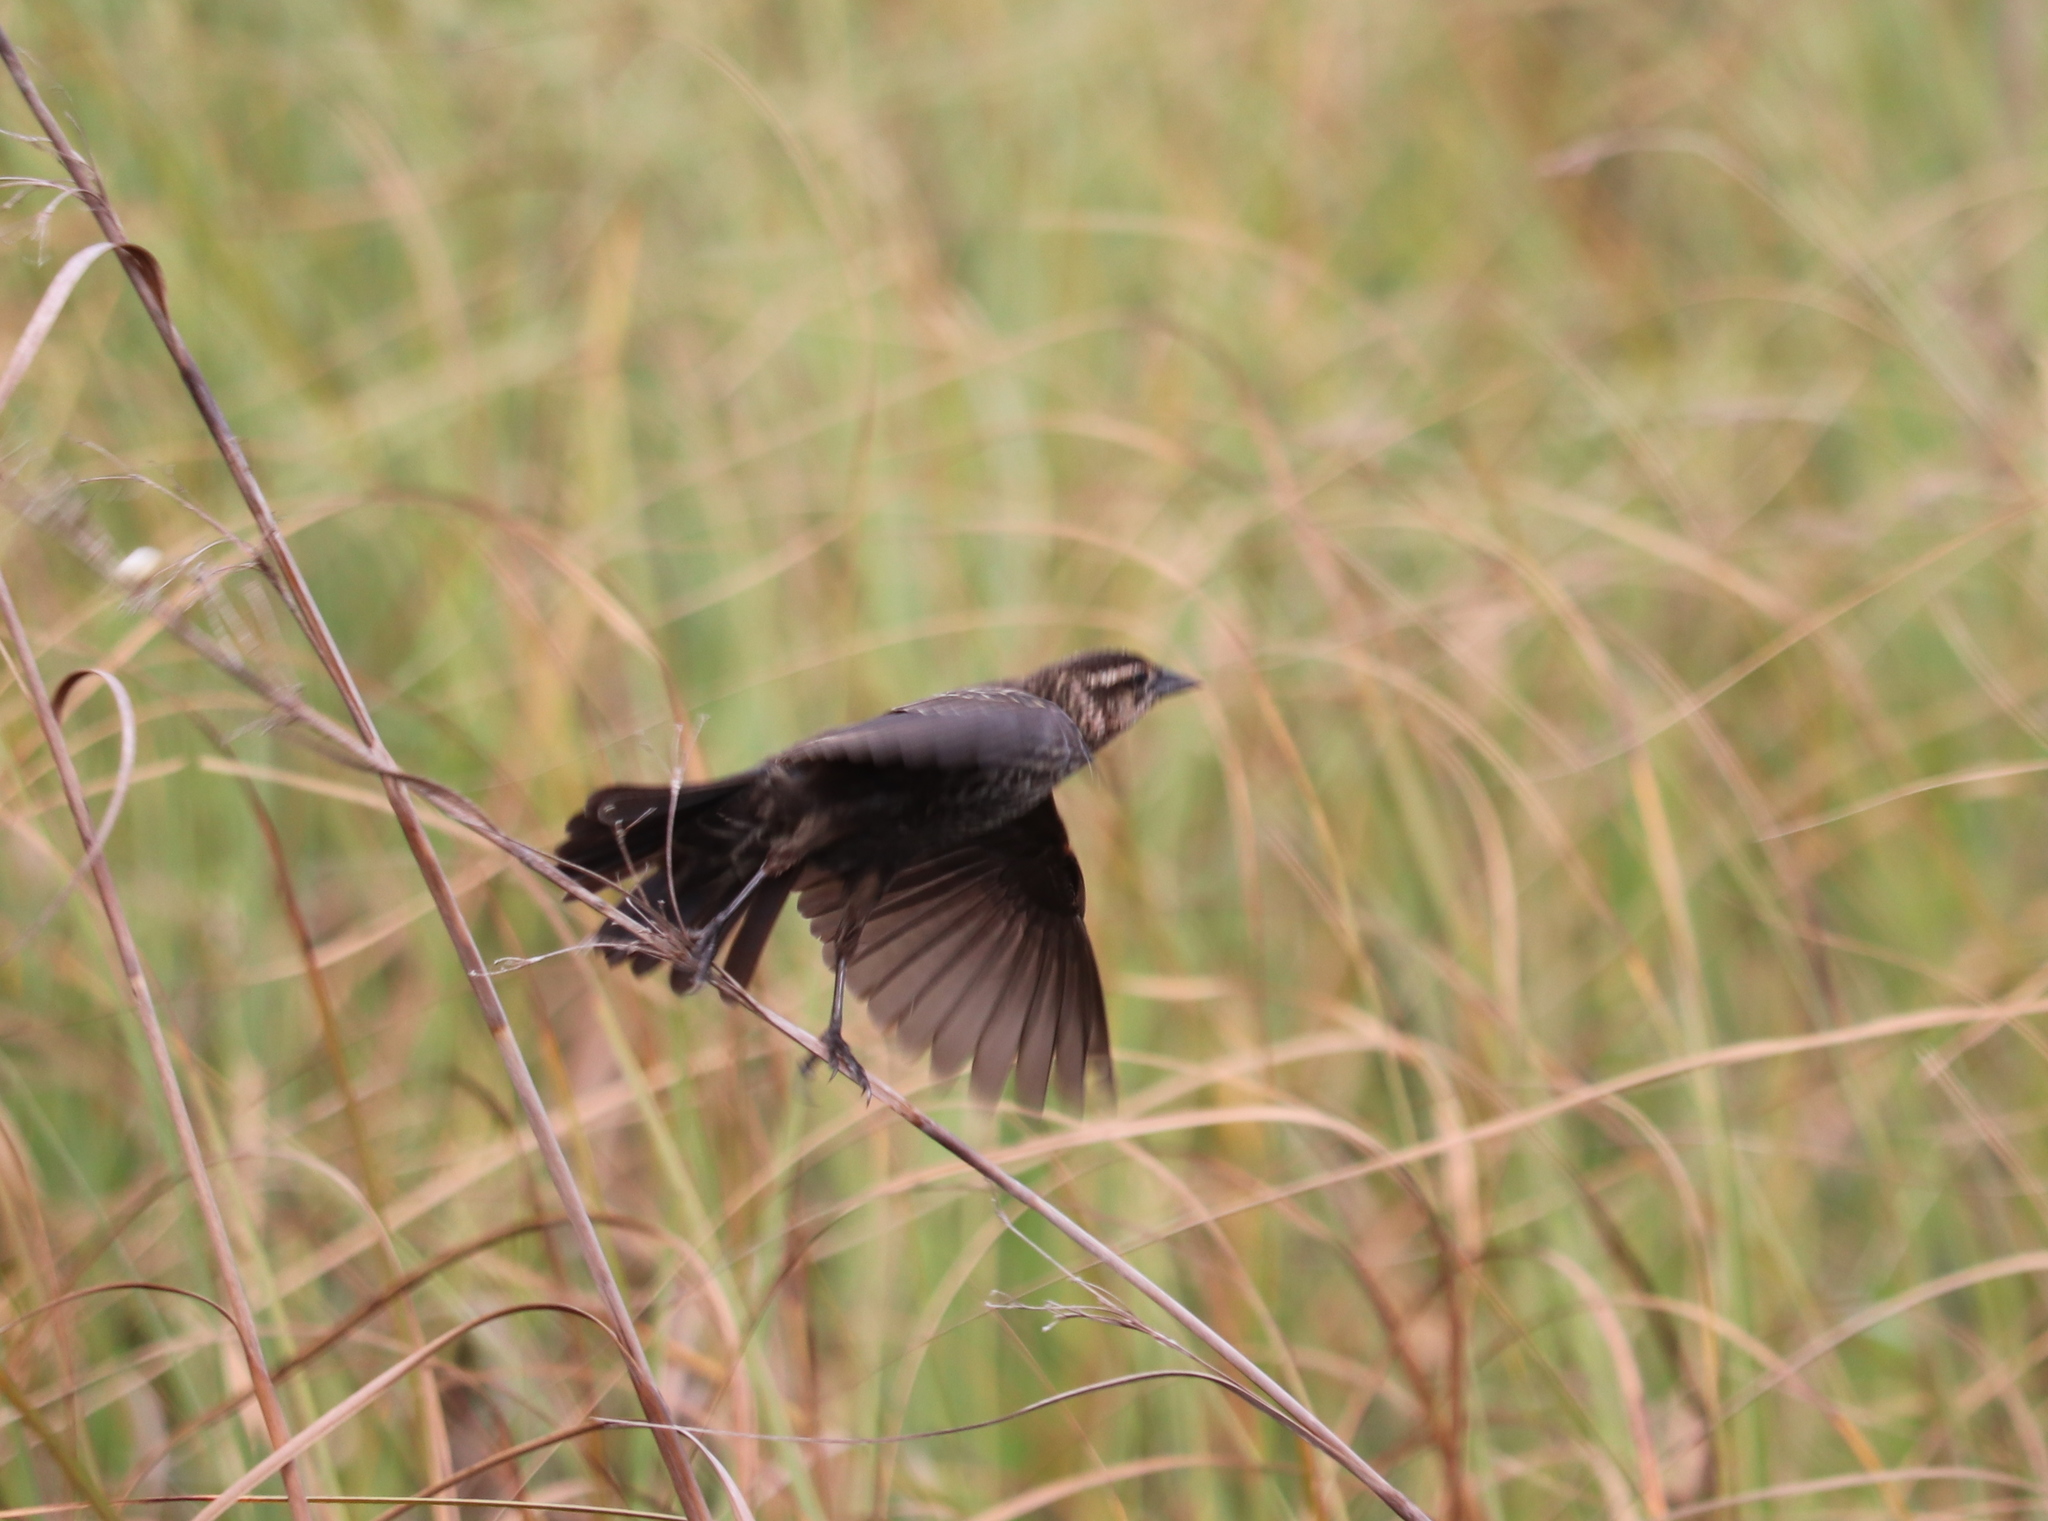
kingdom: Animalia
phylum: Chordata
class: Aves
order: Passeriformes
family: Icteridae
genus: Agelaius
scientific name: Agelaius phoeniceus
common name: Red-winged blackbird
